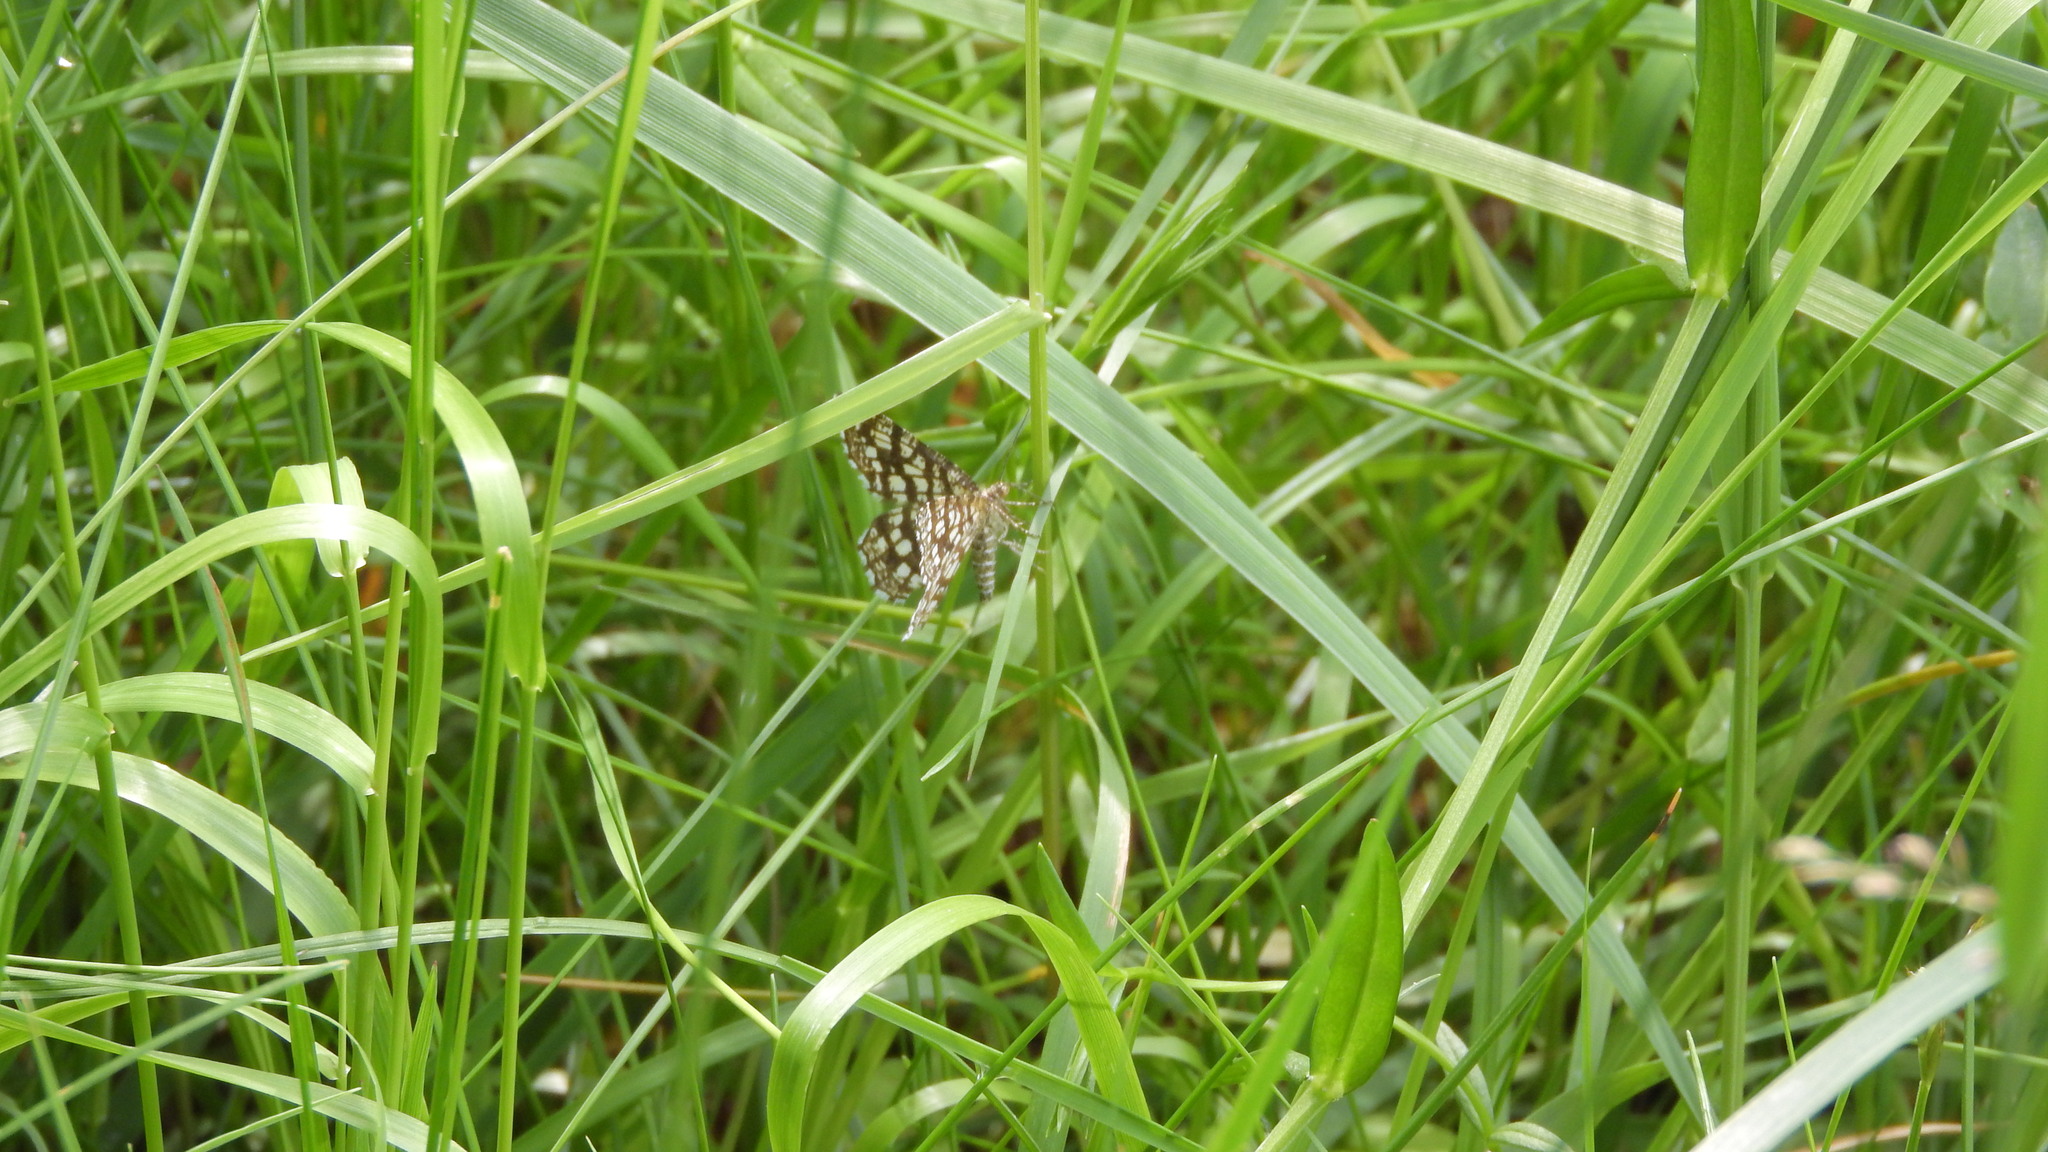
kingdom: Animalia
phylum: Arthropoda
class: Insecta
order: Lepidoptera
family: Geometridae
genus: Chiasmia
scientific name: Chiasmia clathrata
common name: Latticed heath
